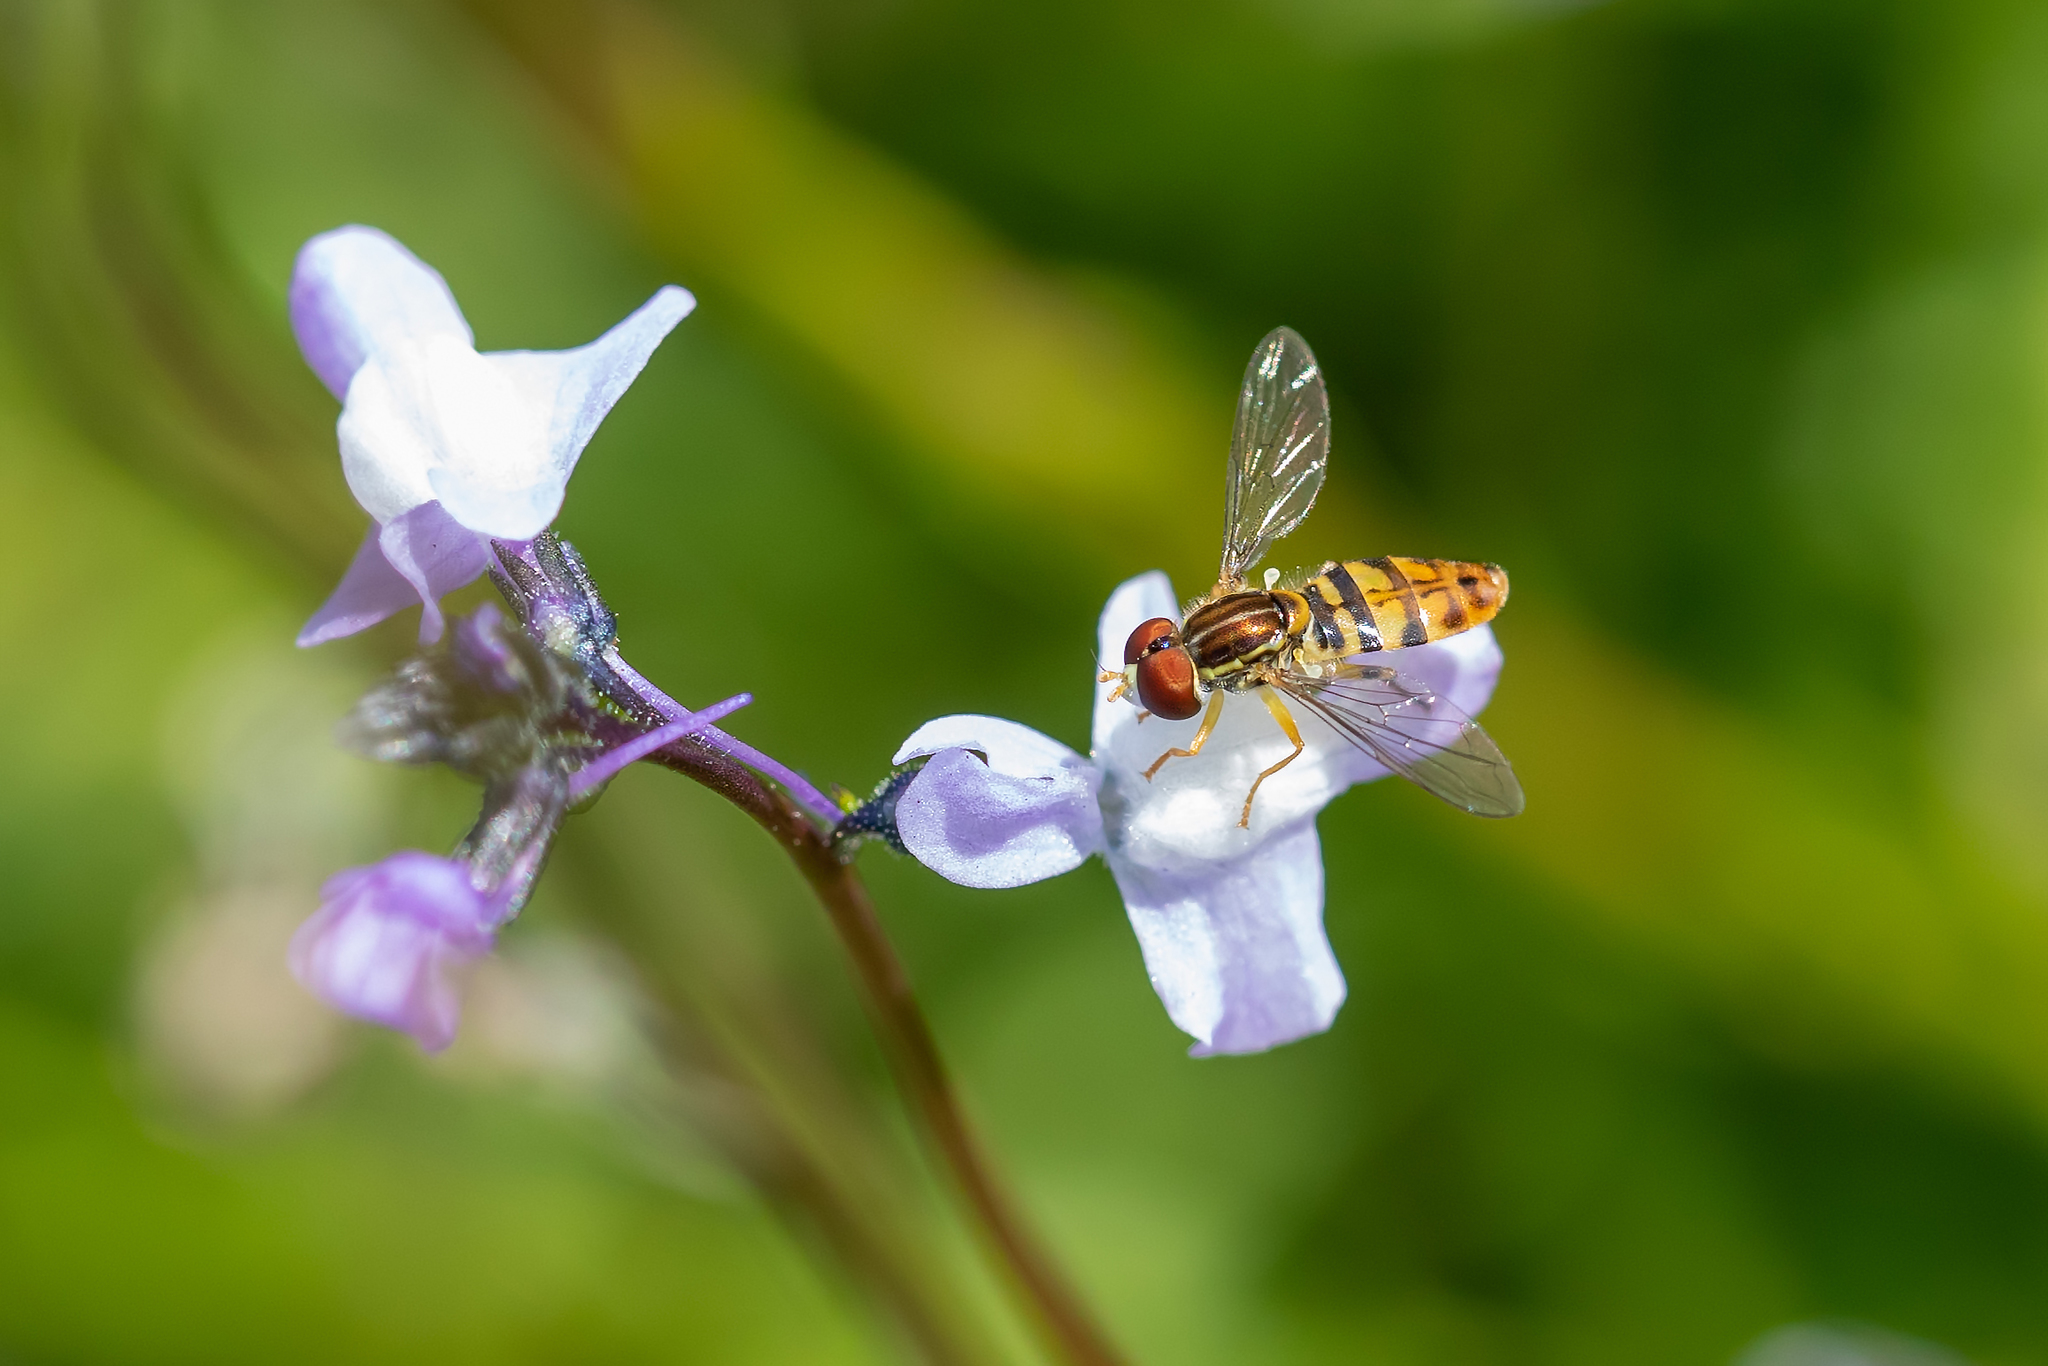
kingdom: Animalia
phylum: Arthropoda
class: Insecta
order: Diptera
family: Syrphidae
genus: Toxomerus
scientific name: Toxomerus floralis
